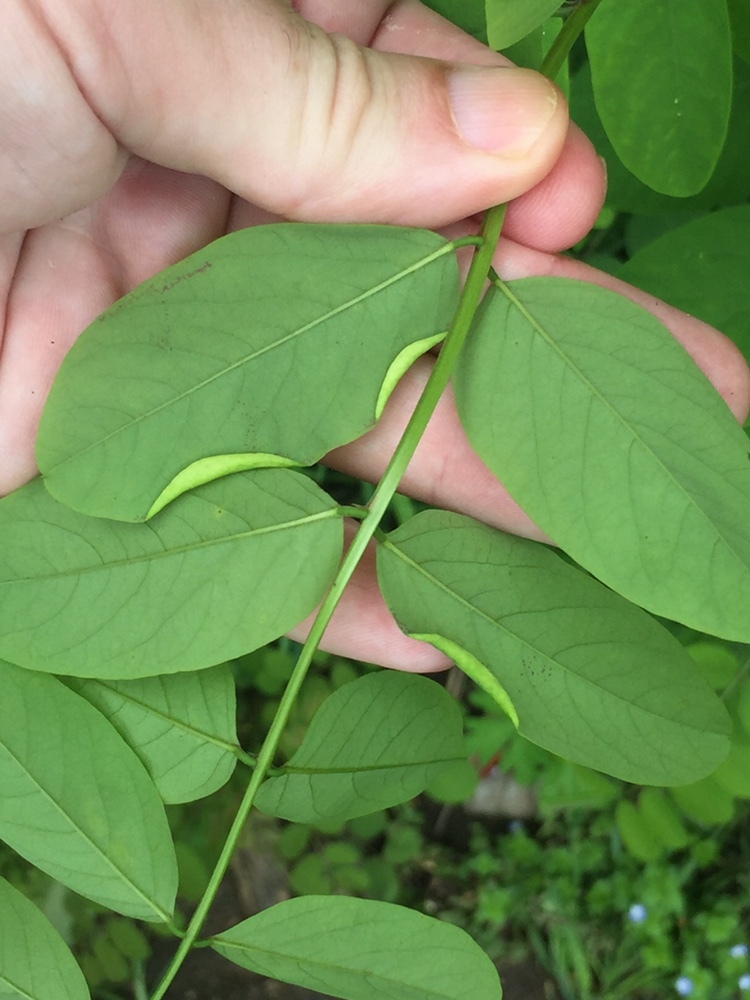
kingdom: Animalia
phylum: Arthropoda
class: Insecta
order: Diptera
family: Cecidomyiidae
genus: Obolodiplosis
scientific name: Obolodiplosis robiniae
